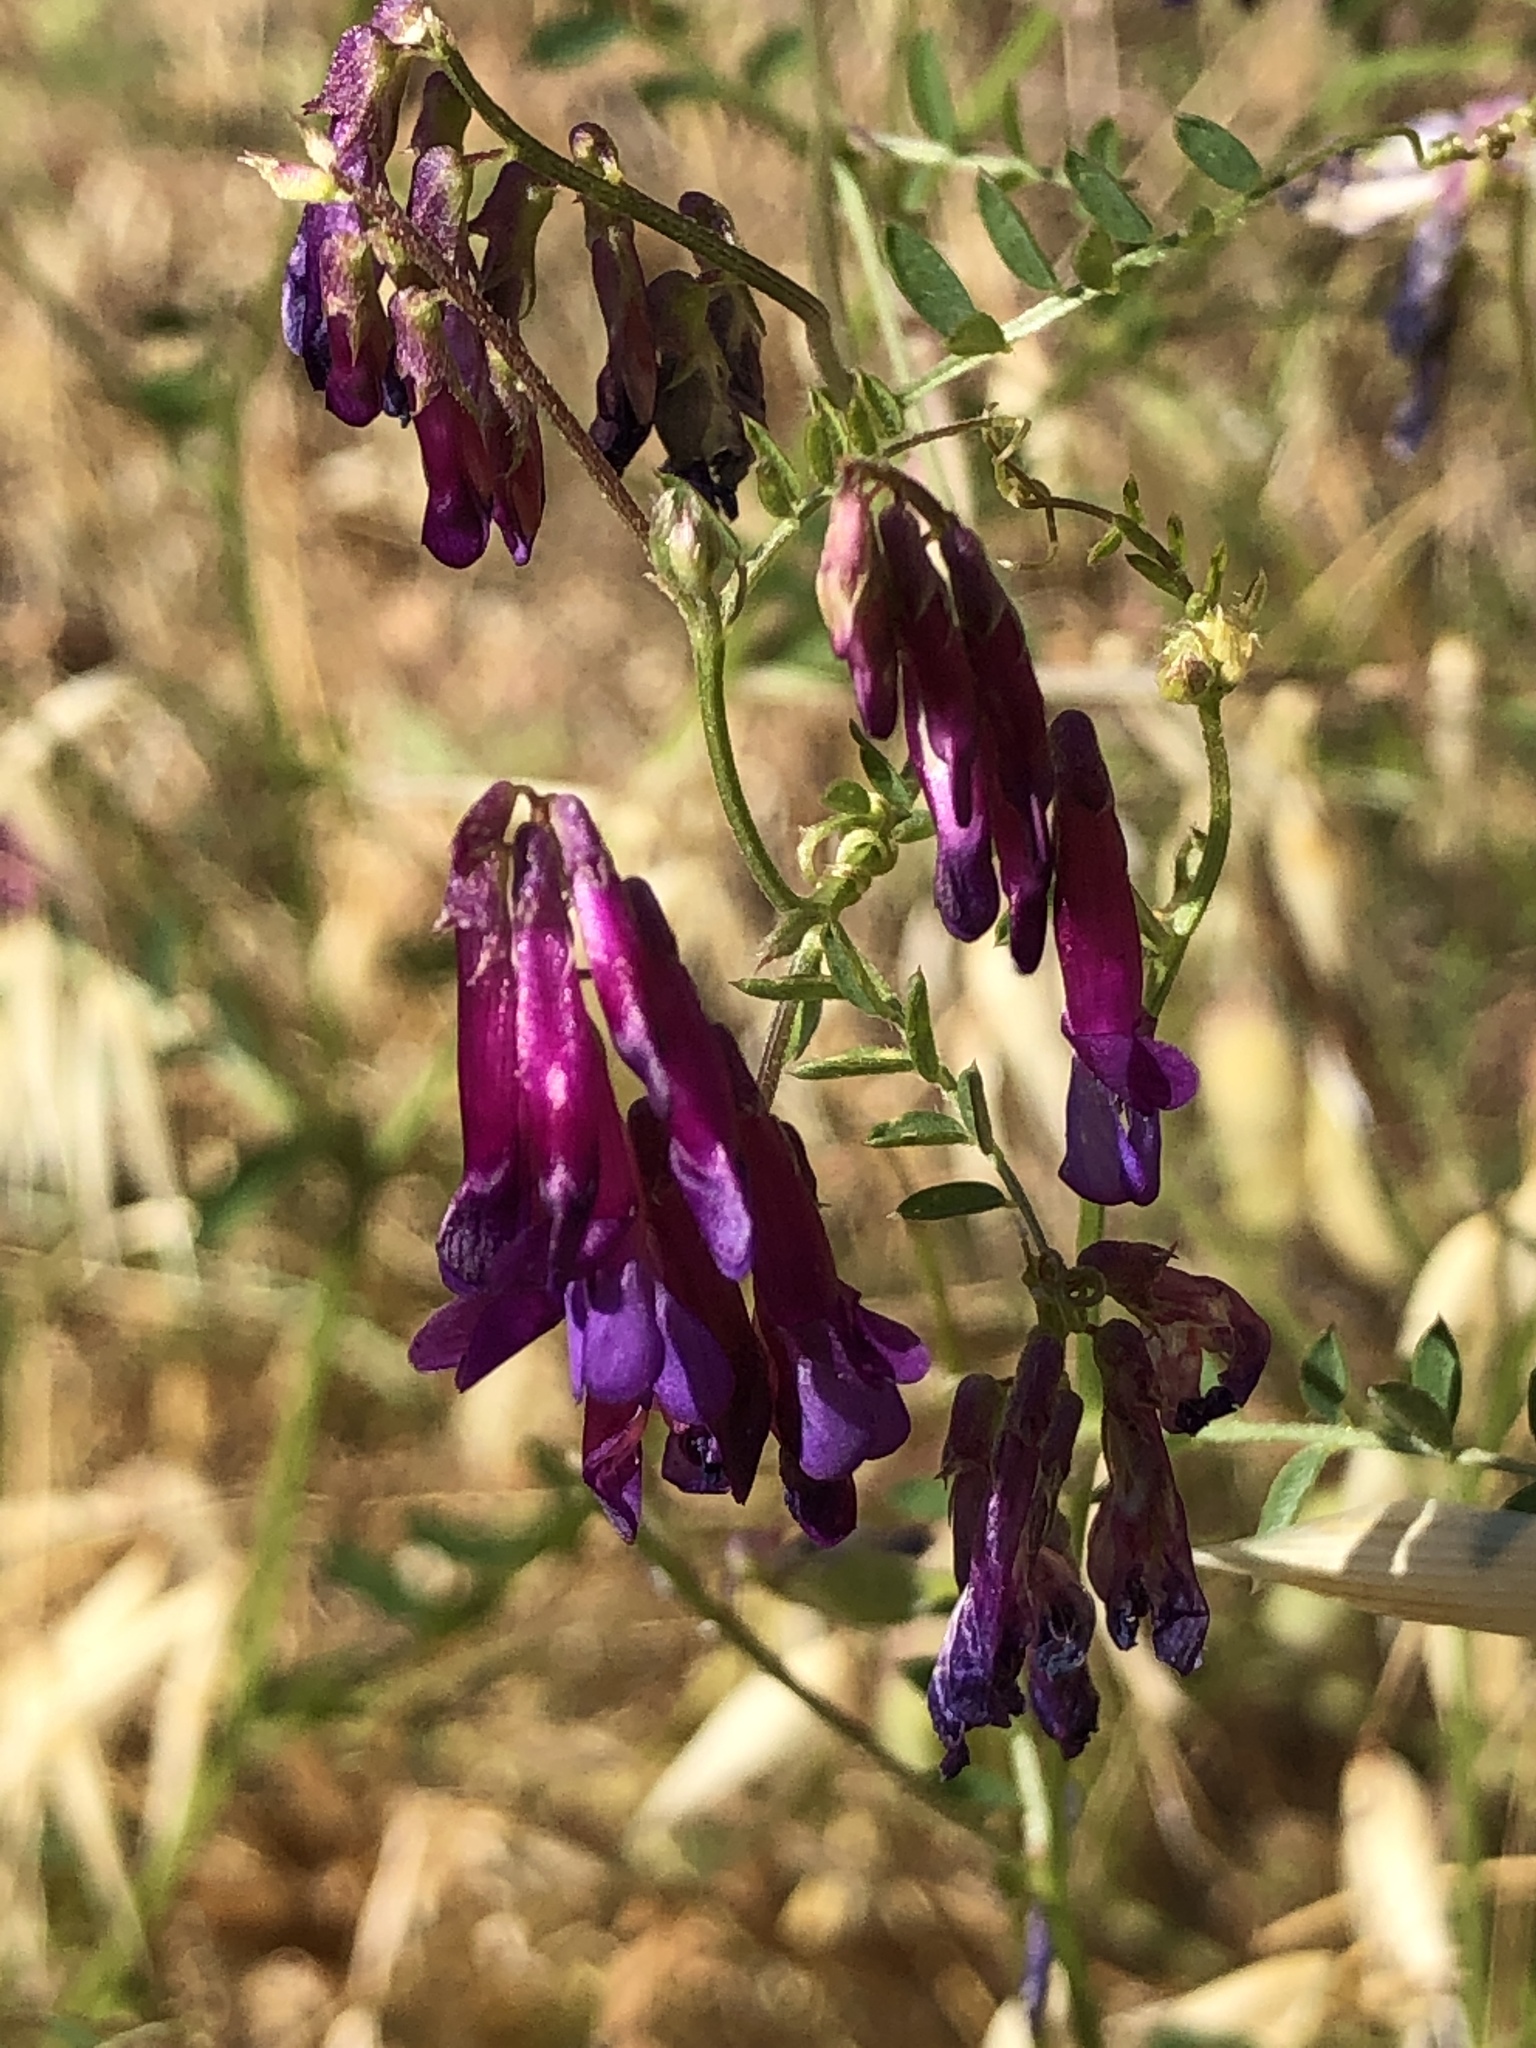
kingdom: Plantae
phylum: Tracheophyta
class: Magnoliopsida
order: Fabales
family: Fabaceae
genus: Vicia
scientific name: Vicia villosa
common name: Fodder vetch
